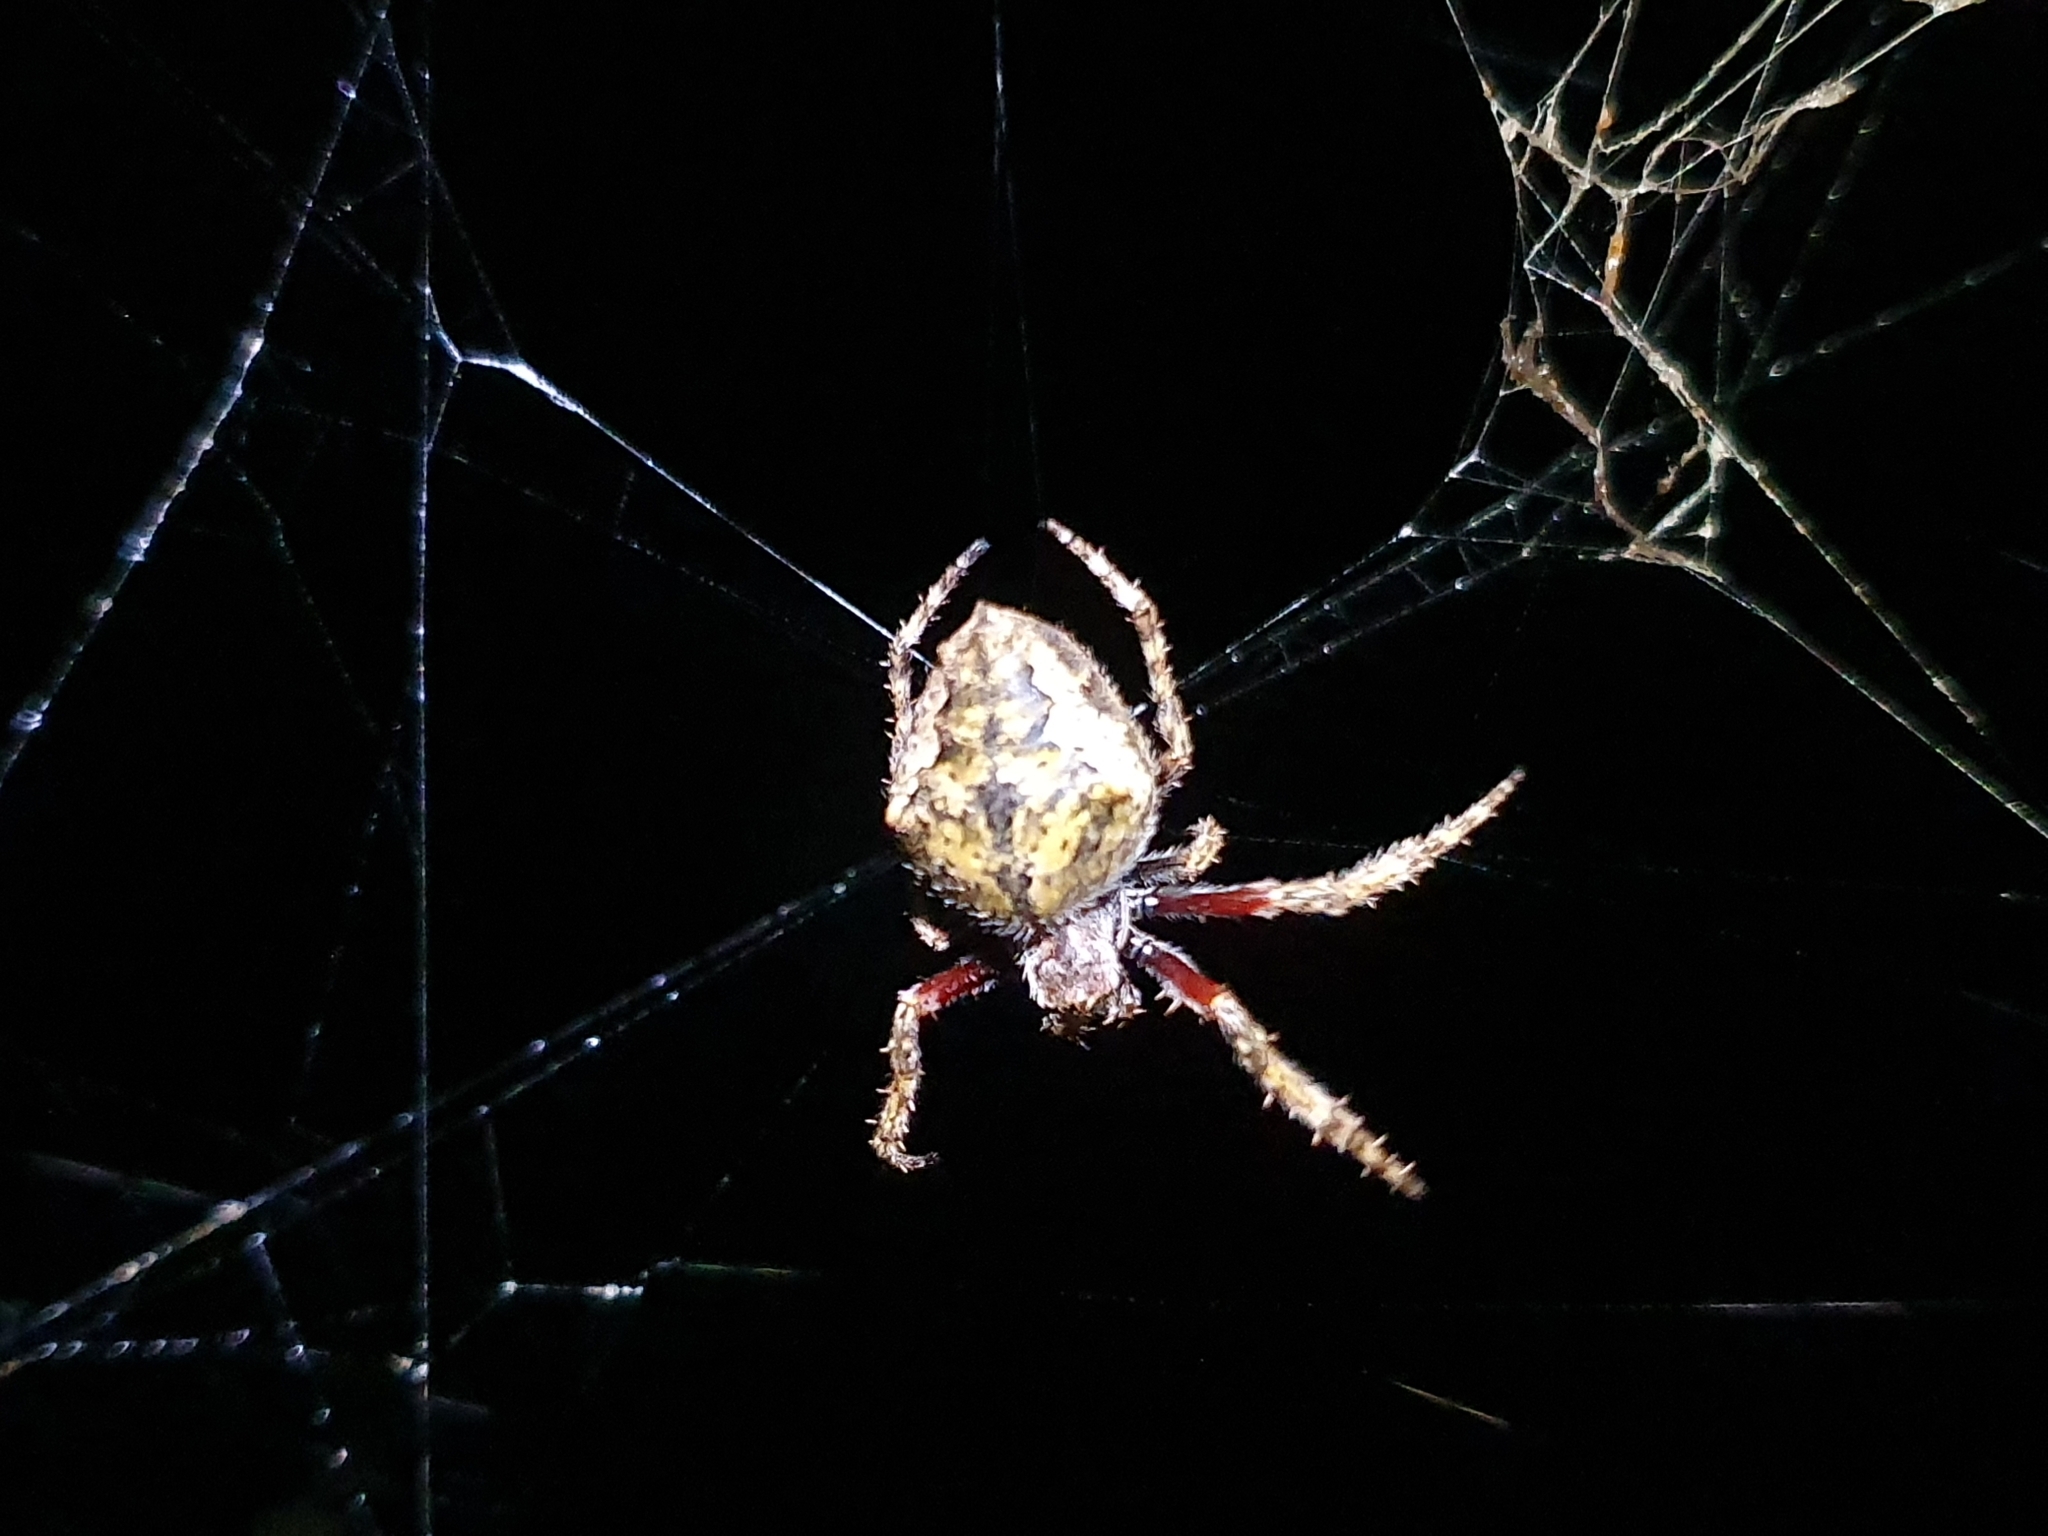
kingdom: Animalia
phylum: Arthropoda
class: Arachnida
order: Araneae
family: Araneidae
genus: Eriophora
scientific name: Eriophora pustulosa
